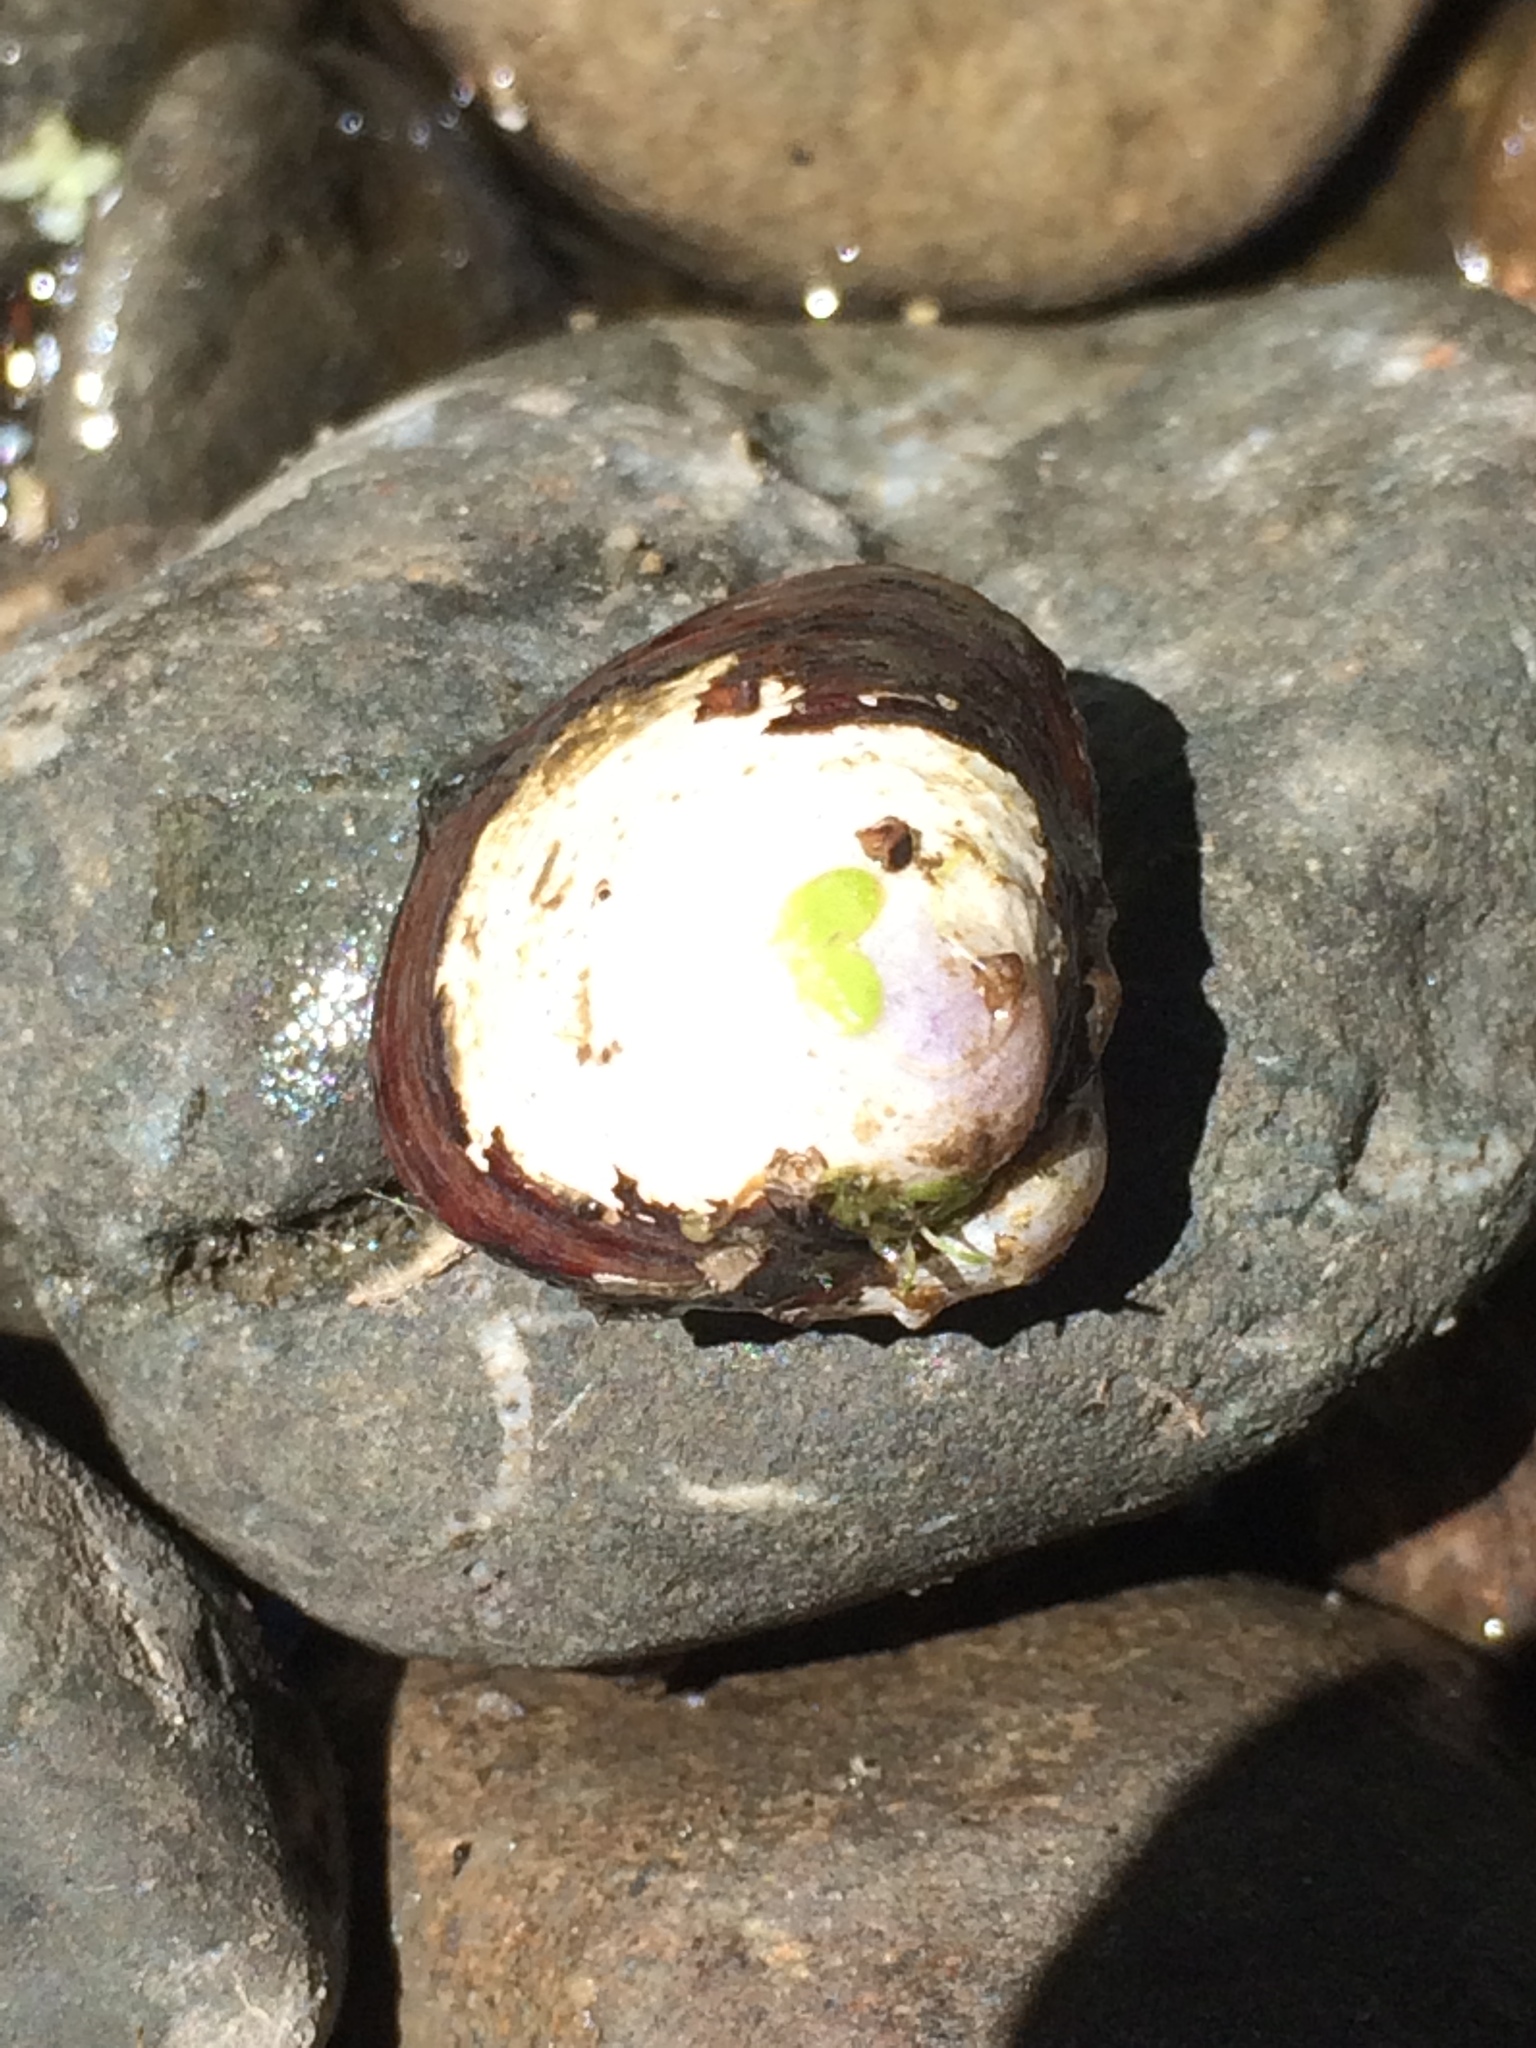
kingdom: Animalia
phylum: Mollusca
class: Bivalvia
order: Venerida
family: Cyrenidae
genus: Corbicula
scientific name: Corbicula fluminea
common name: Asian clam
